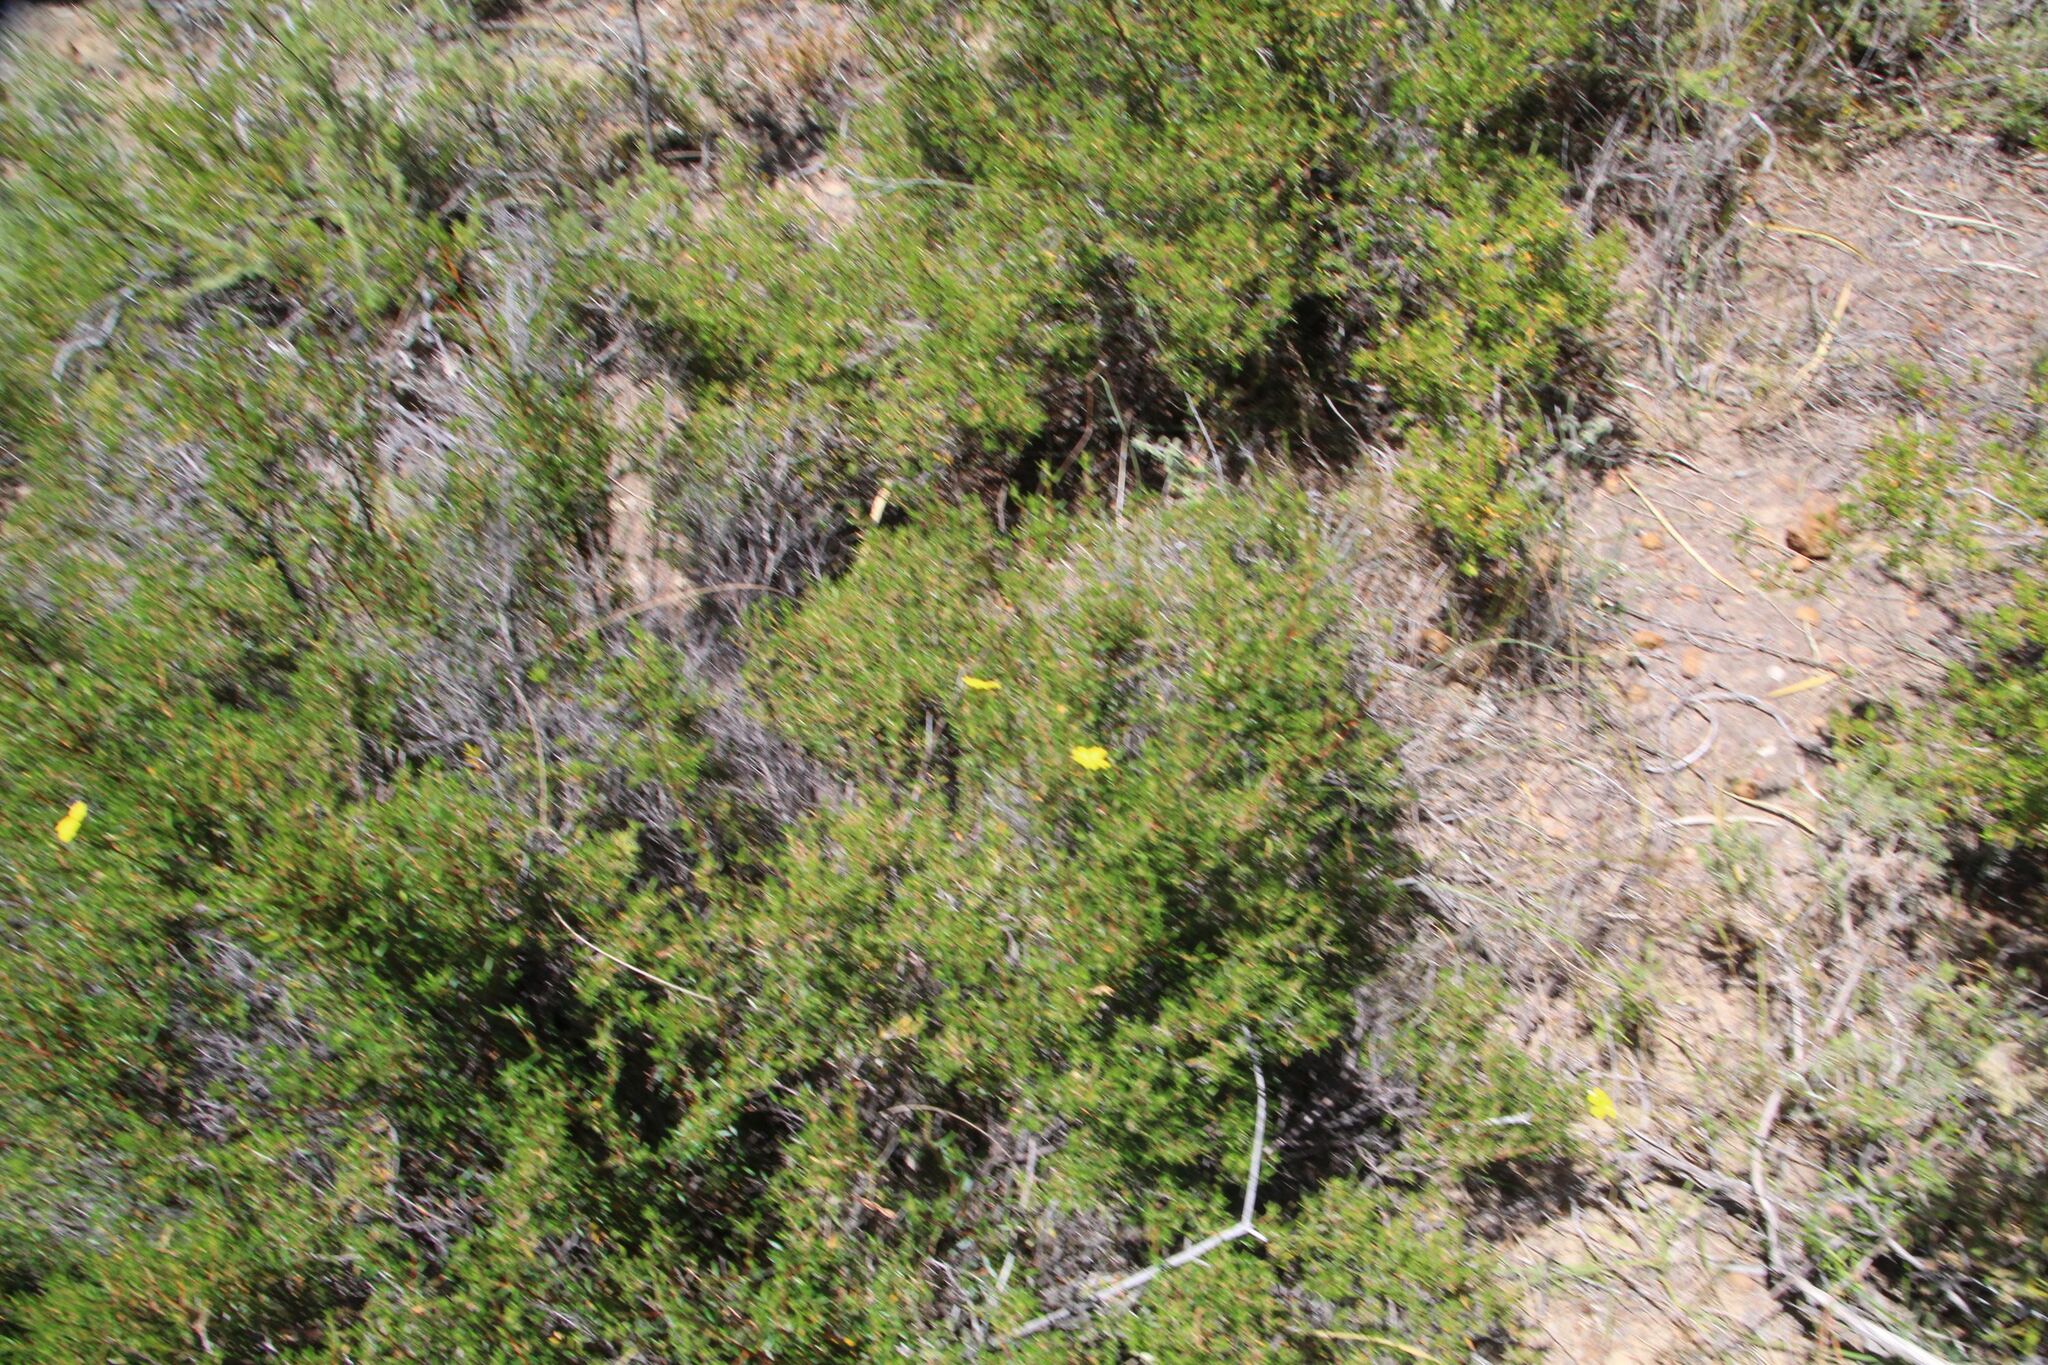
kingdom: Plantae
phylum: Tracheophyta
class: Magnoliopsida
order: Dilleniales
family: Dilleniaceae
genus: Hibbertia
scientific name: Hibbertia hypericoides
